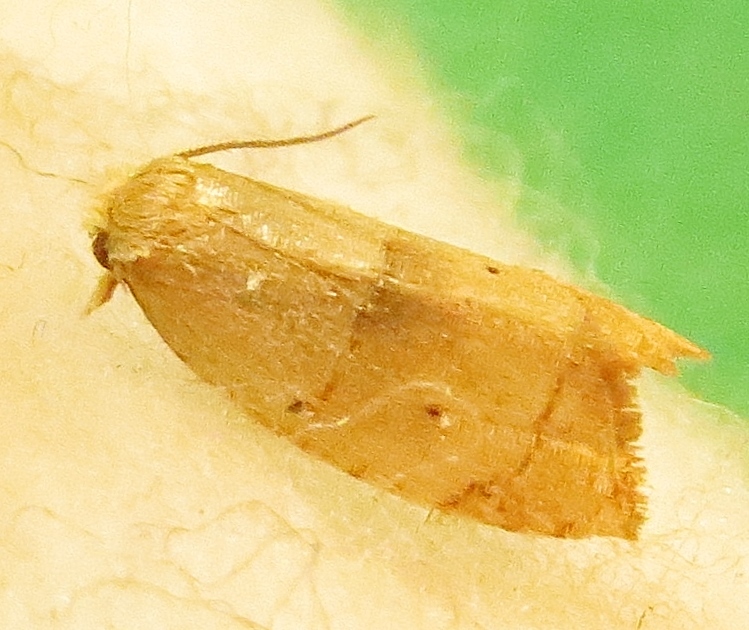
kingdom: Animalia
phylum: Arthropoda
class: Insecta
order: Lepidoptera
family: Tortricidae
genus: Coelostathma
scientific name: Coelostathma discopunctana
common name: Batman moth
